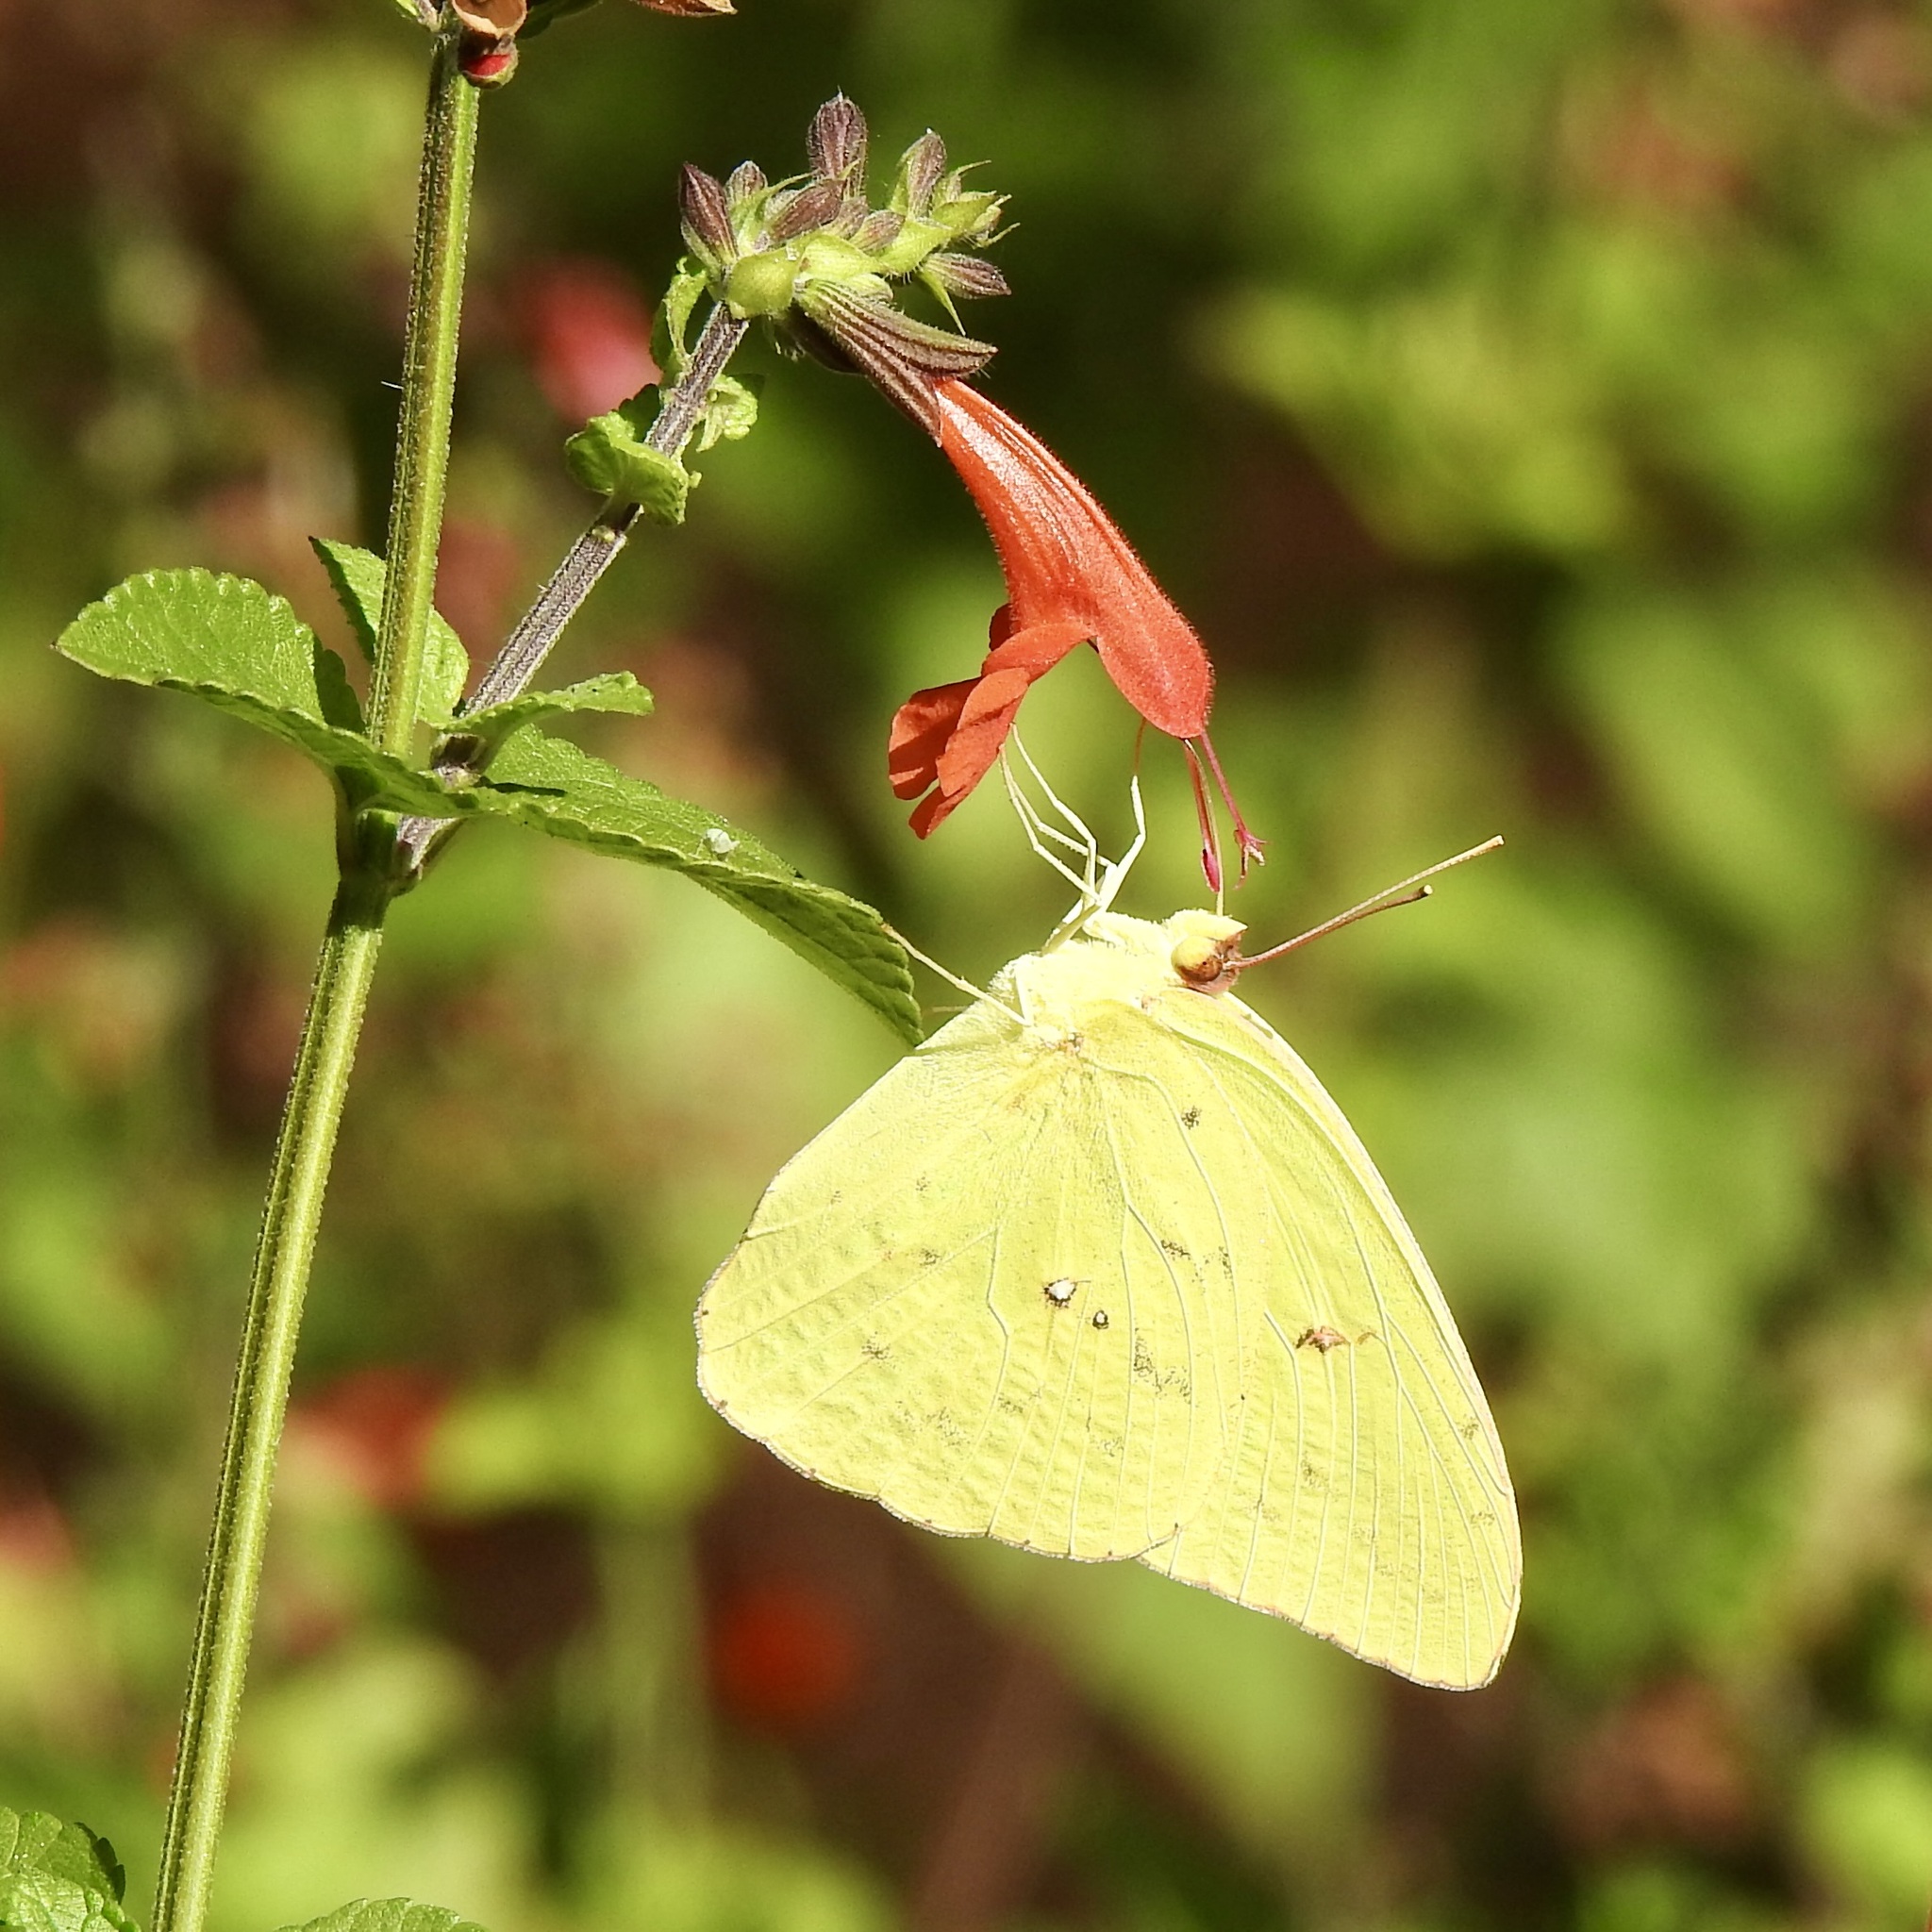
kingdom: Animalia
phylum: Arthropoda
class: Insecta
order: Lepidoptera
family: Pieridae
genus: Phoebis
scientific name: Phoebis sennae
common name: Cloudless sulphur
